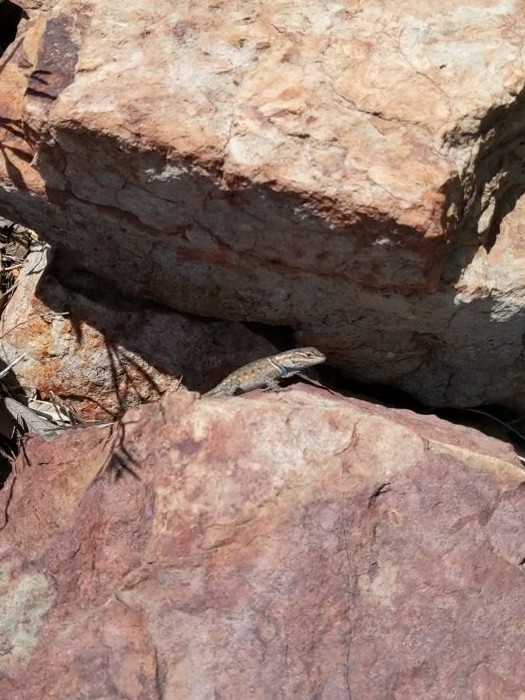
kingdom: Animalia
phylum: Chordata
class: Squamata
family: Phrynosomatidae
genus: Sceloporus
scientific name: Sceloporus jarrovii
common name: Yarrow's spiny lizard
